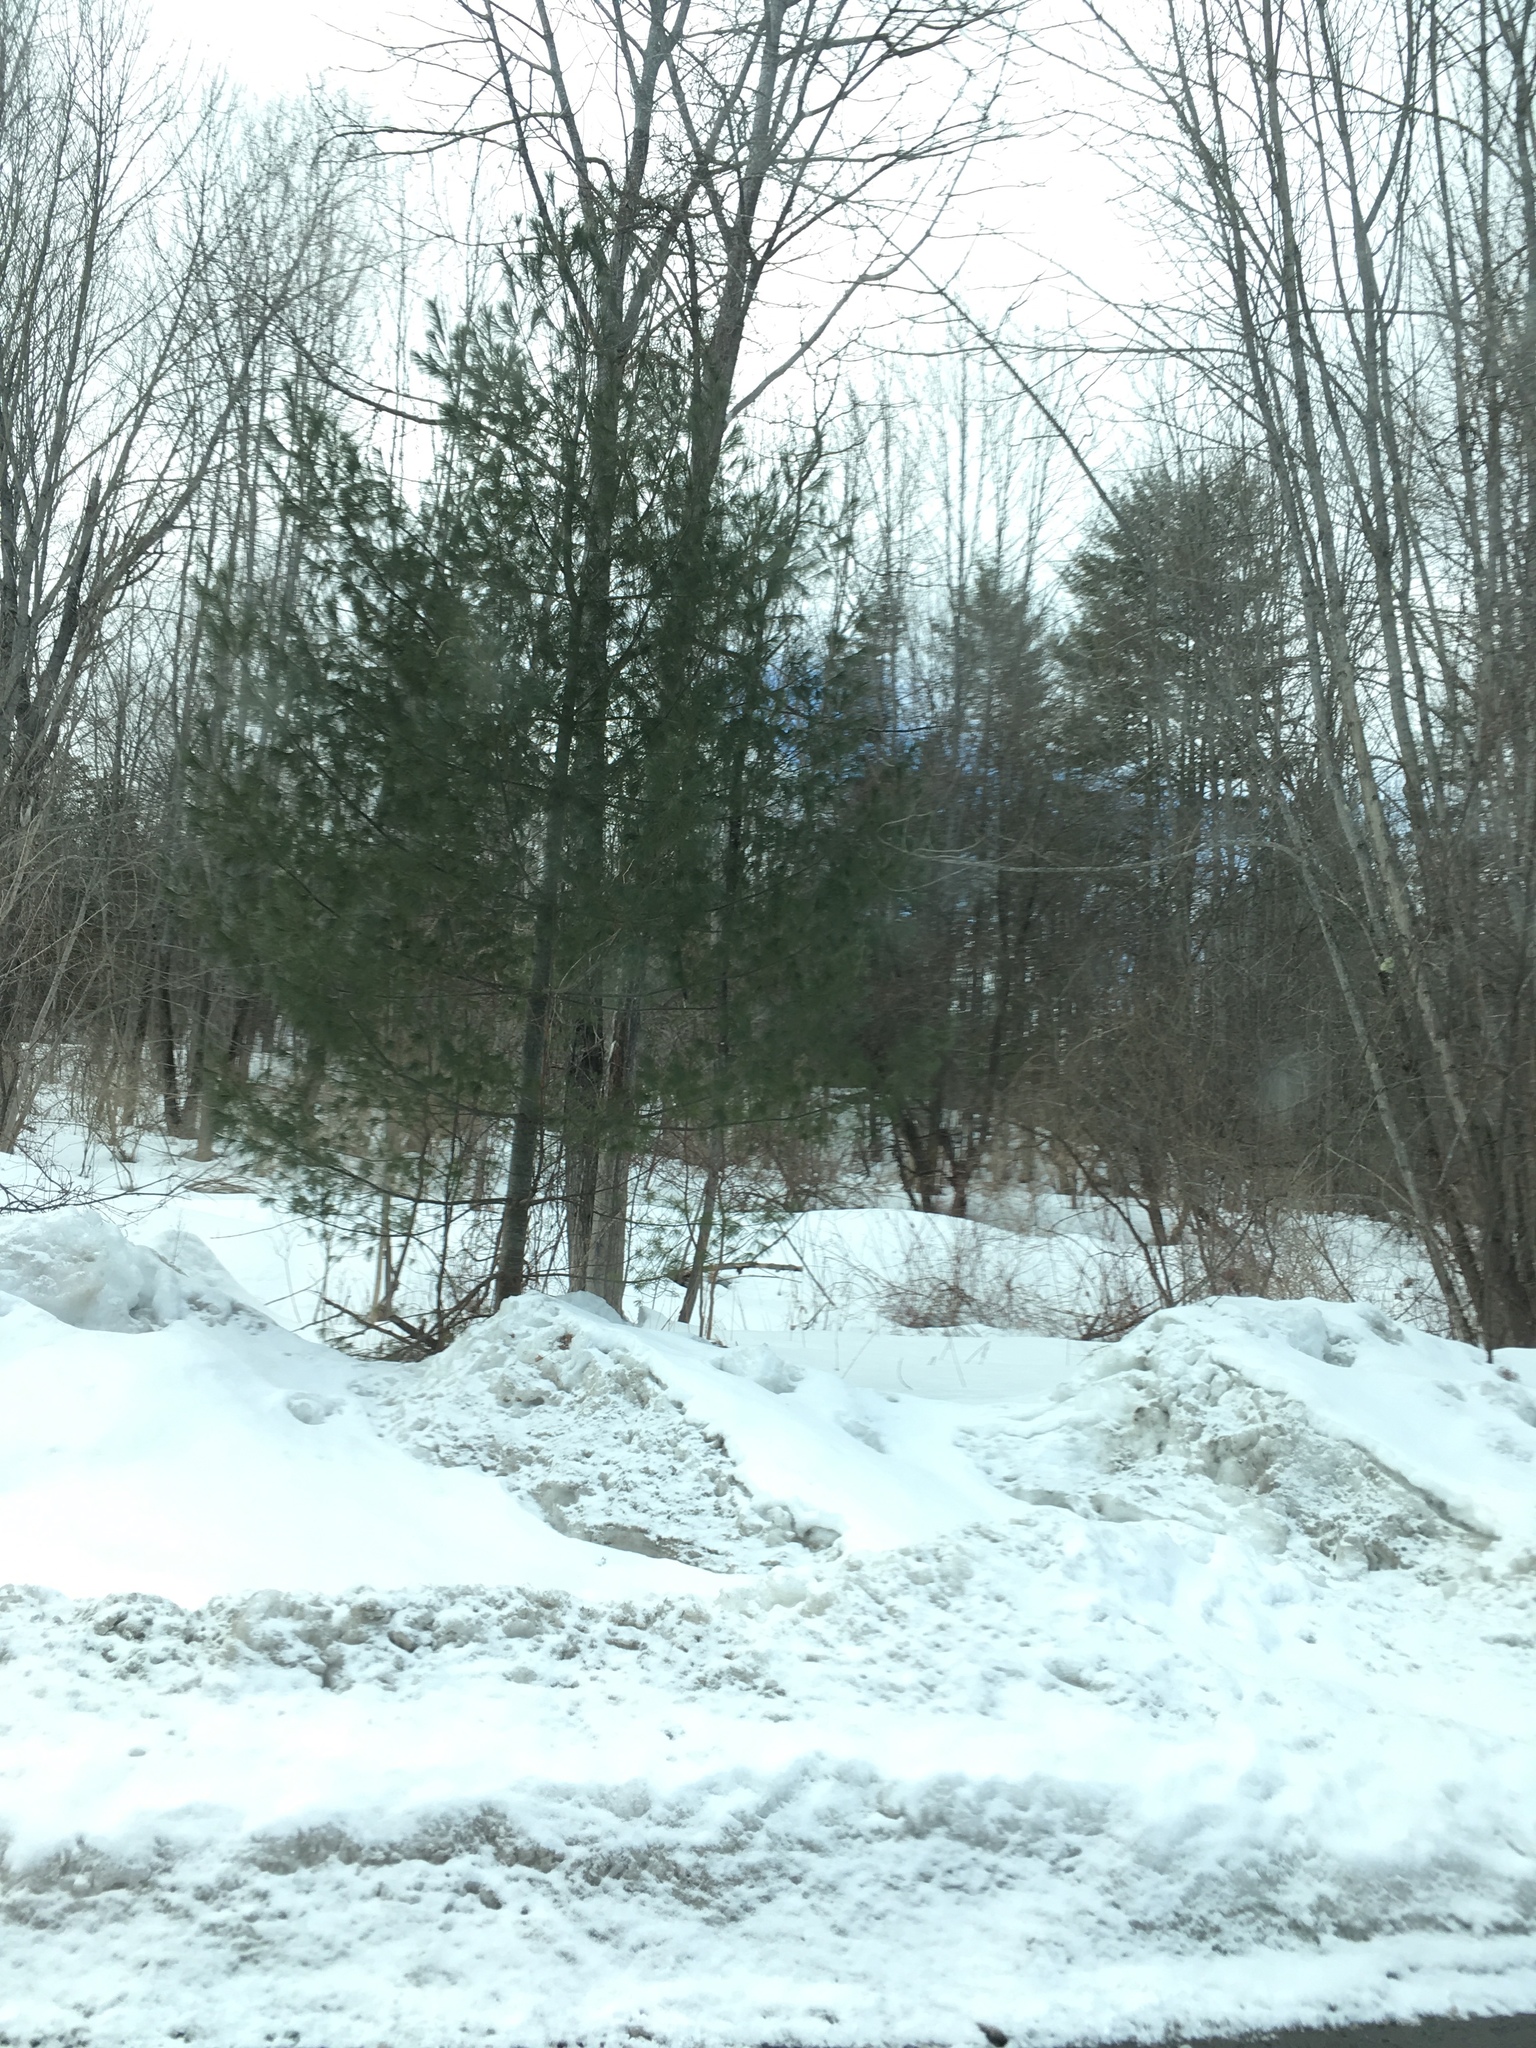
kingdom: Plantae
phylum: Tracheophyta
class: Pinopsida
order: Pinales
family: Pinaceae
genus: Pinus
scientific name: Pinus strobus
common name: Weymouth pine
